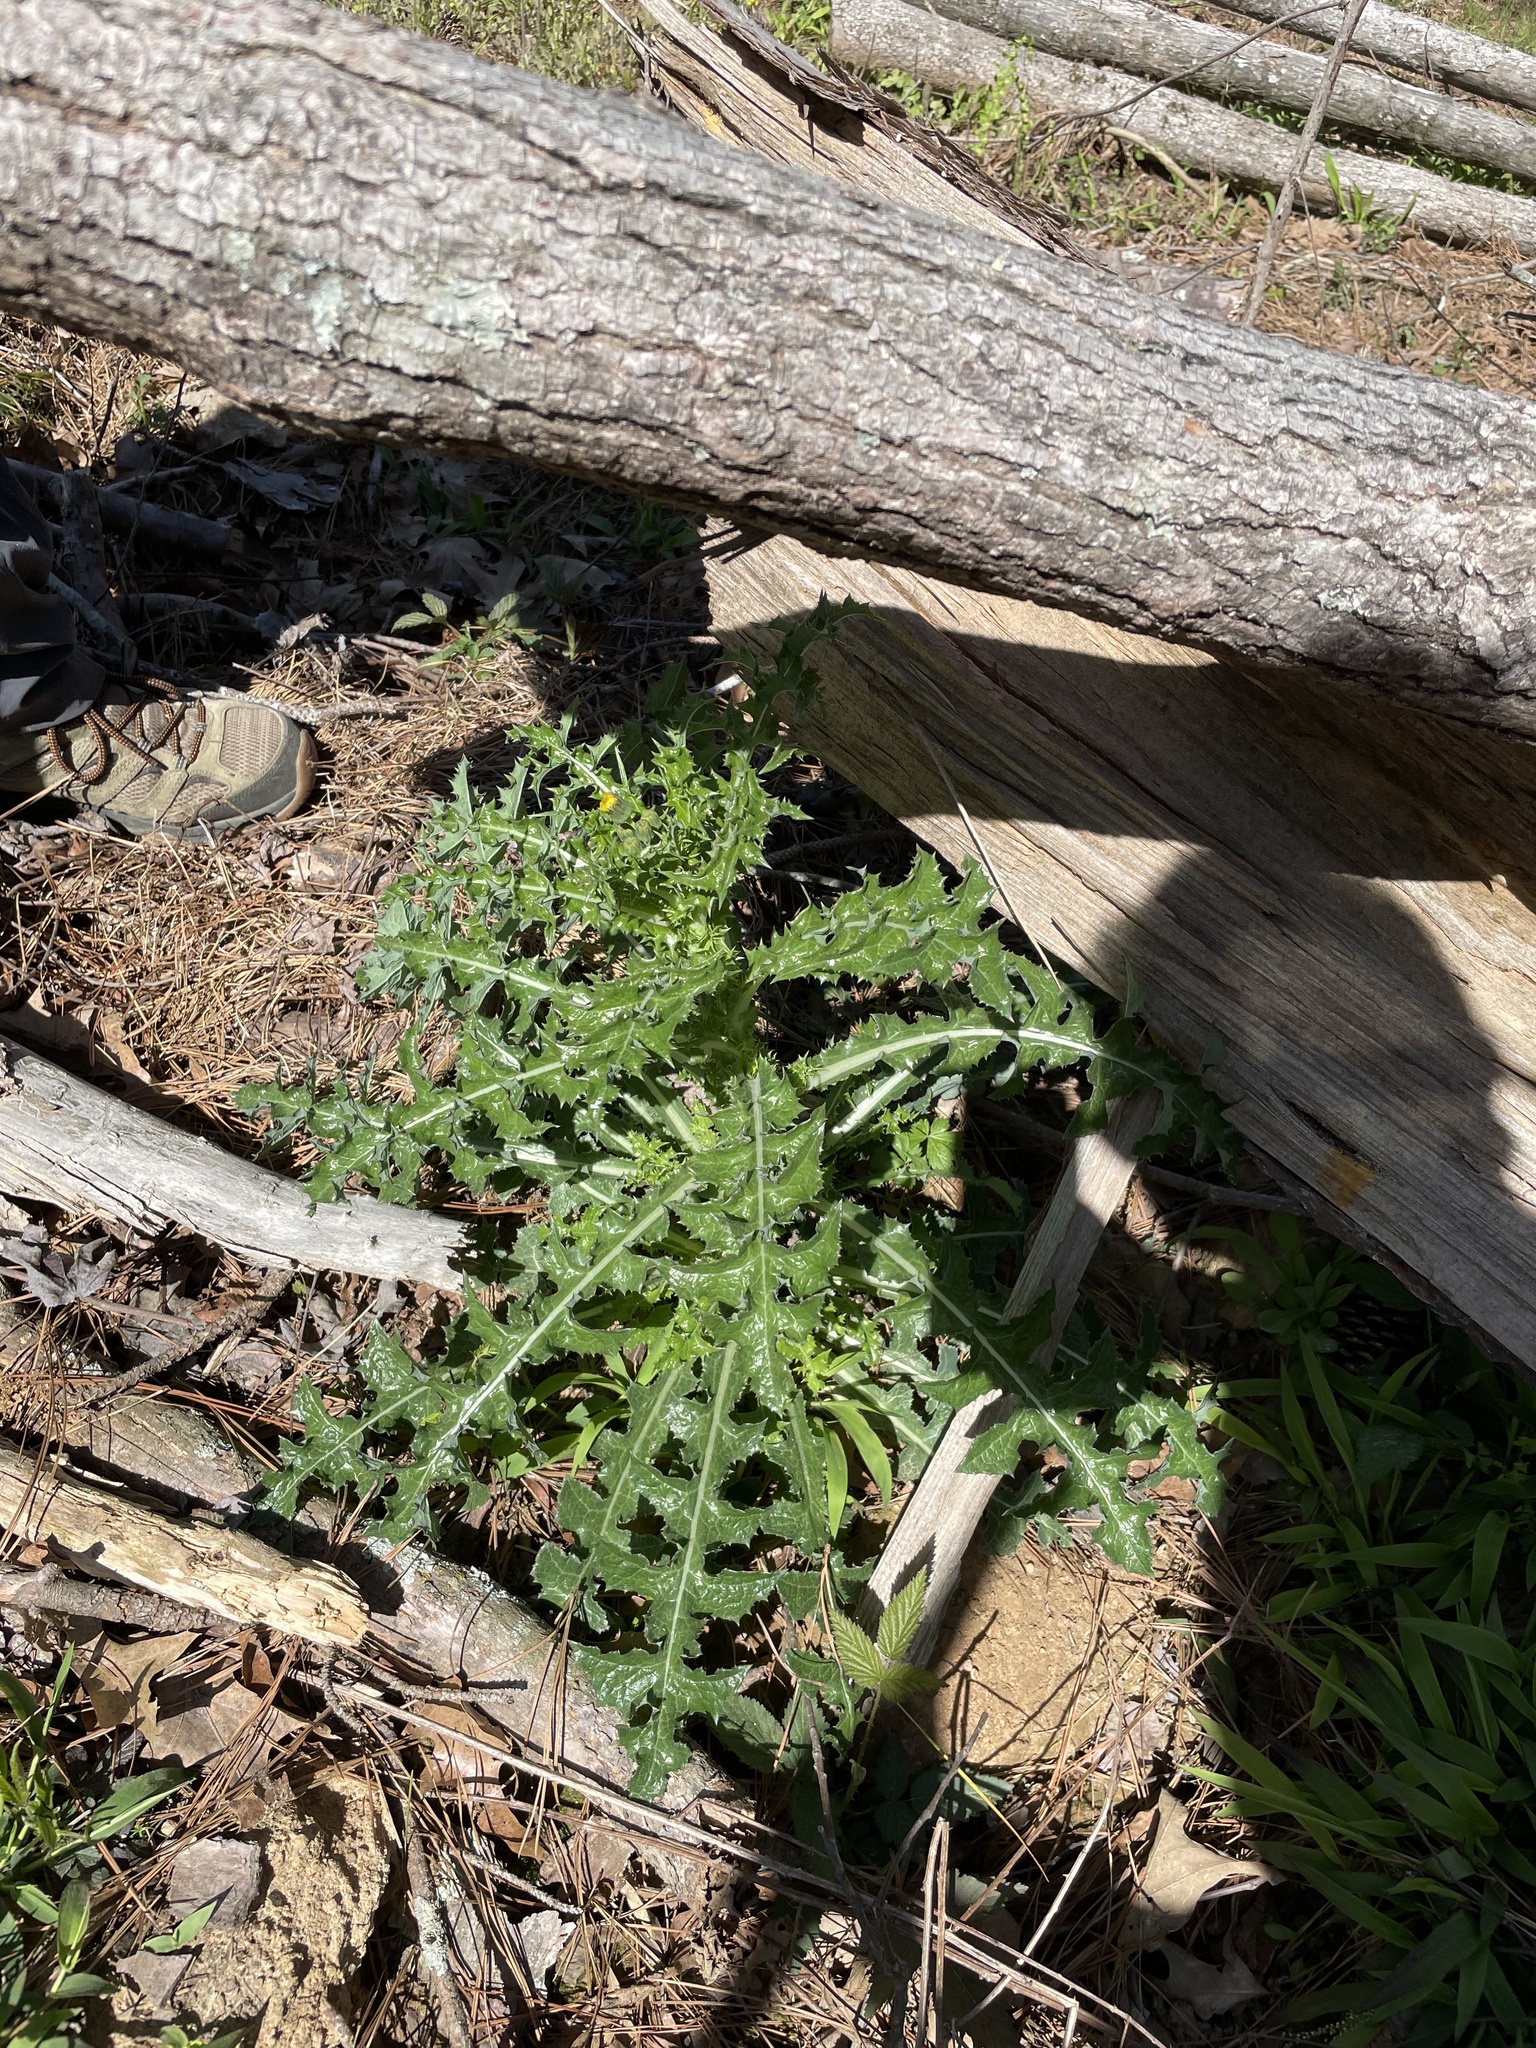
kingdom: Plantae
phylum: Tracheophyta
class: Magnoliopsida
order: Asterales
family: Asteraceae
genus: Sonchus
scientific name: Sonchus asper
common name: Prickly sow-thistle
